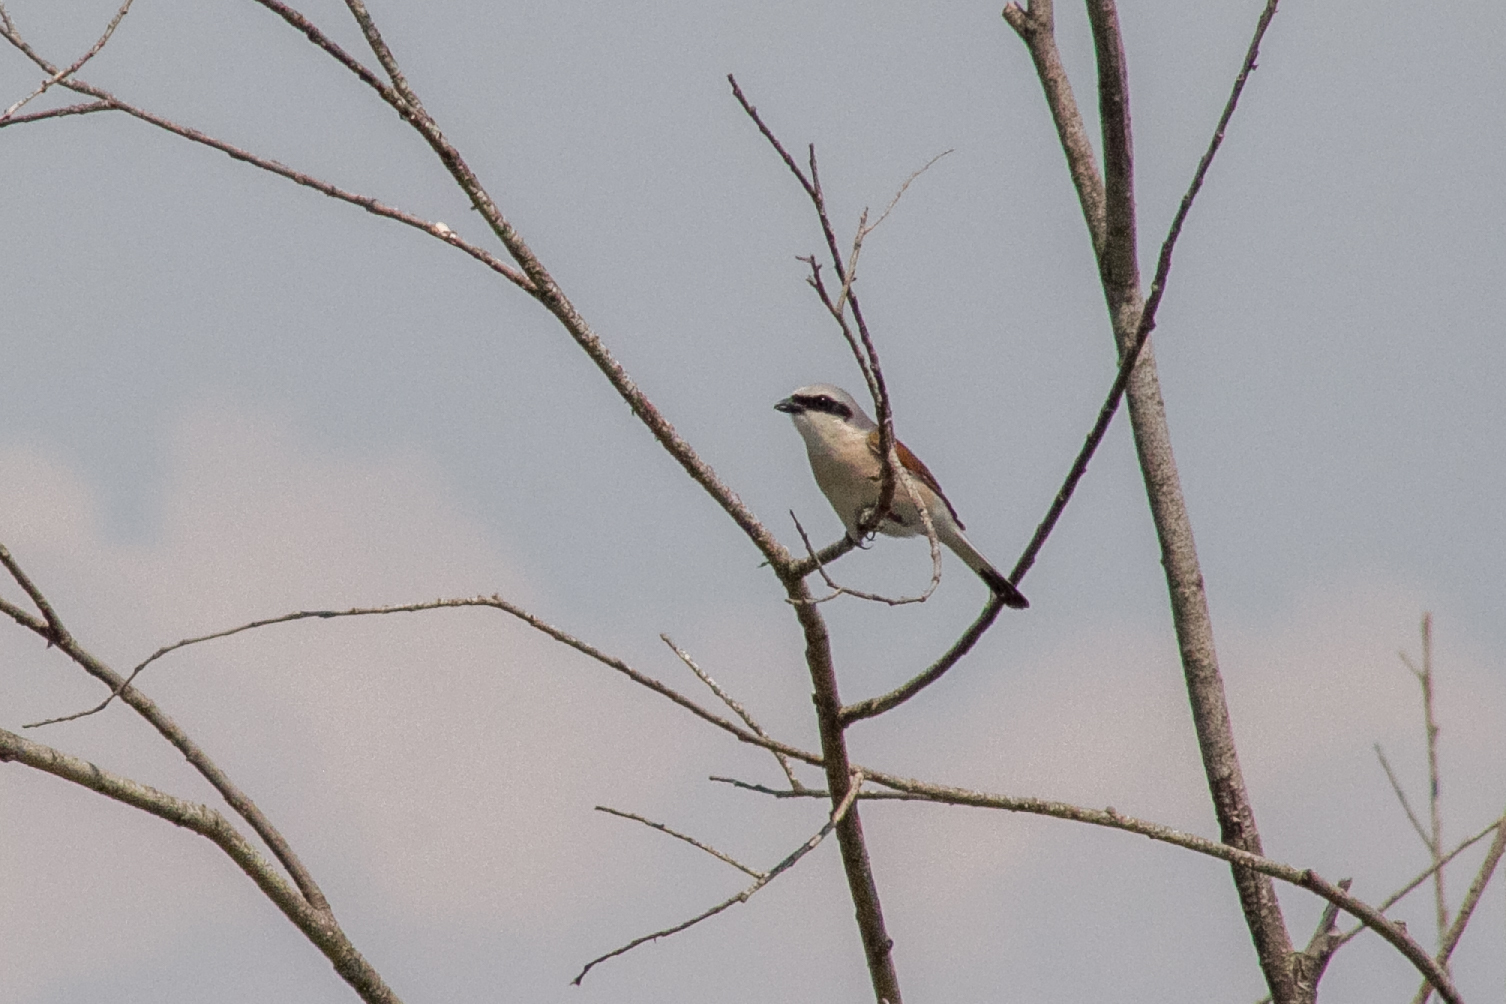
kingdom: Animalia
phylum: Chordata
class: Aves
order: Passeriformes
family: Laniidae
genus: Lanius
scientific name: Lanius collurio
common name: Red-backed shrike
